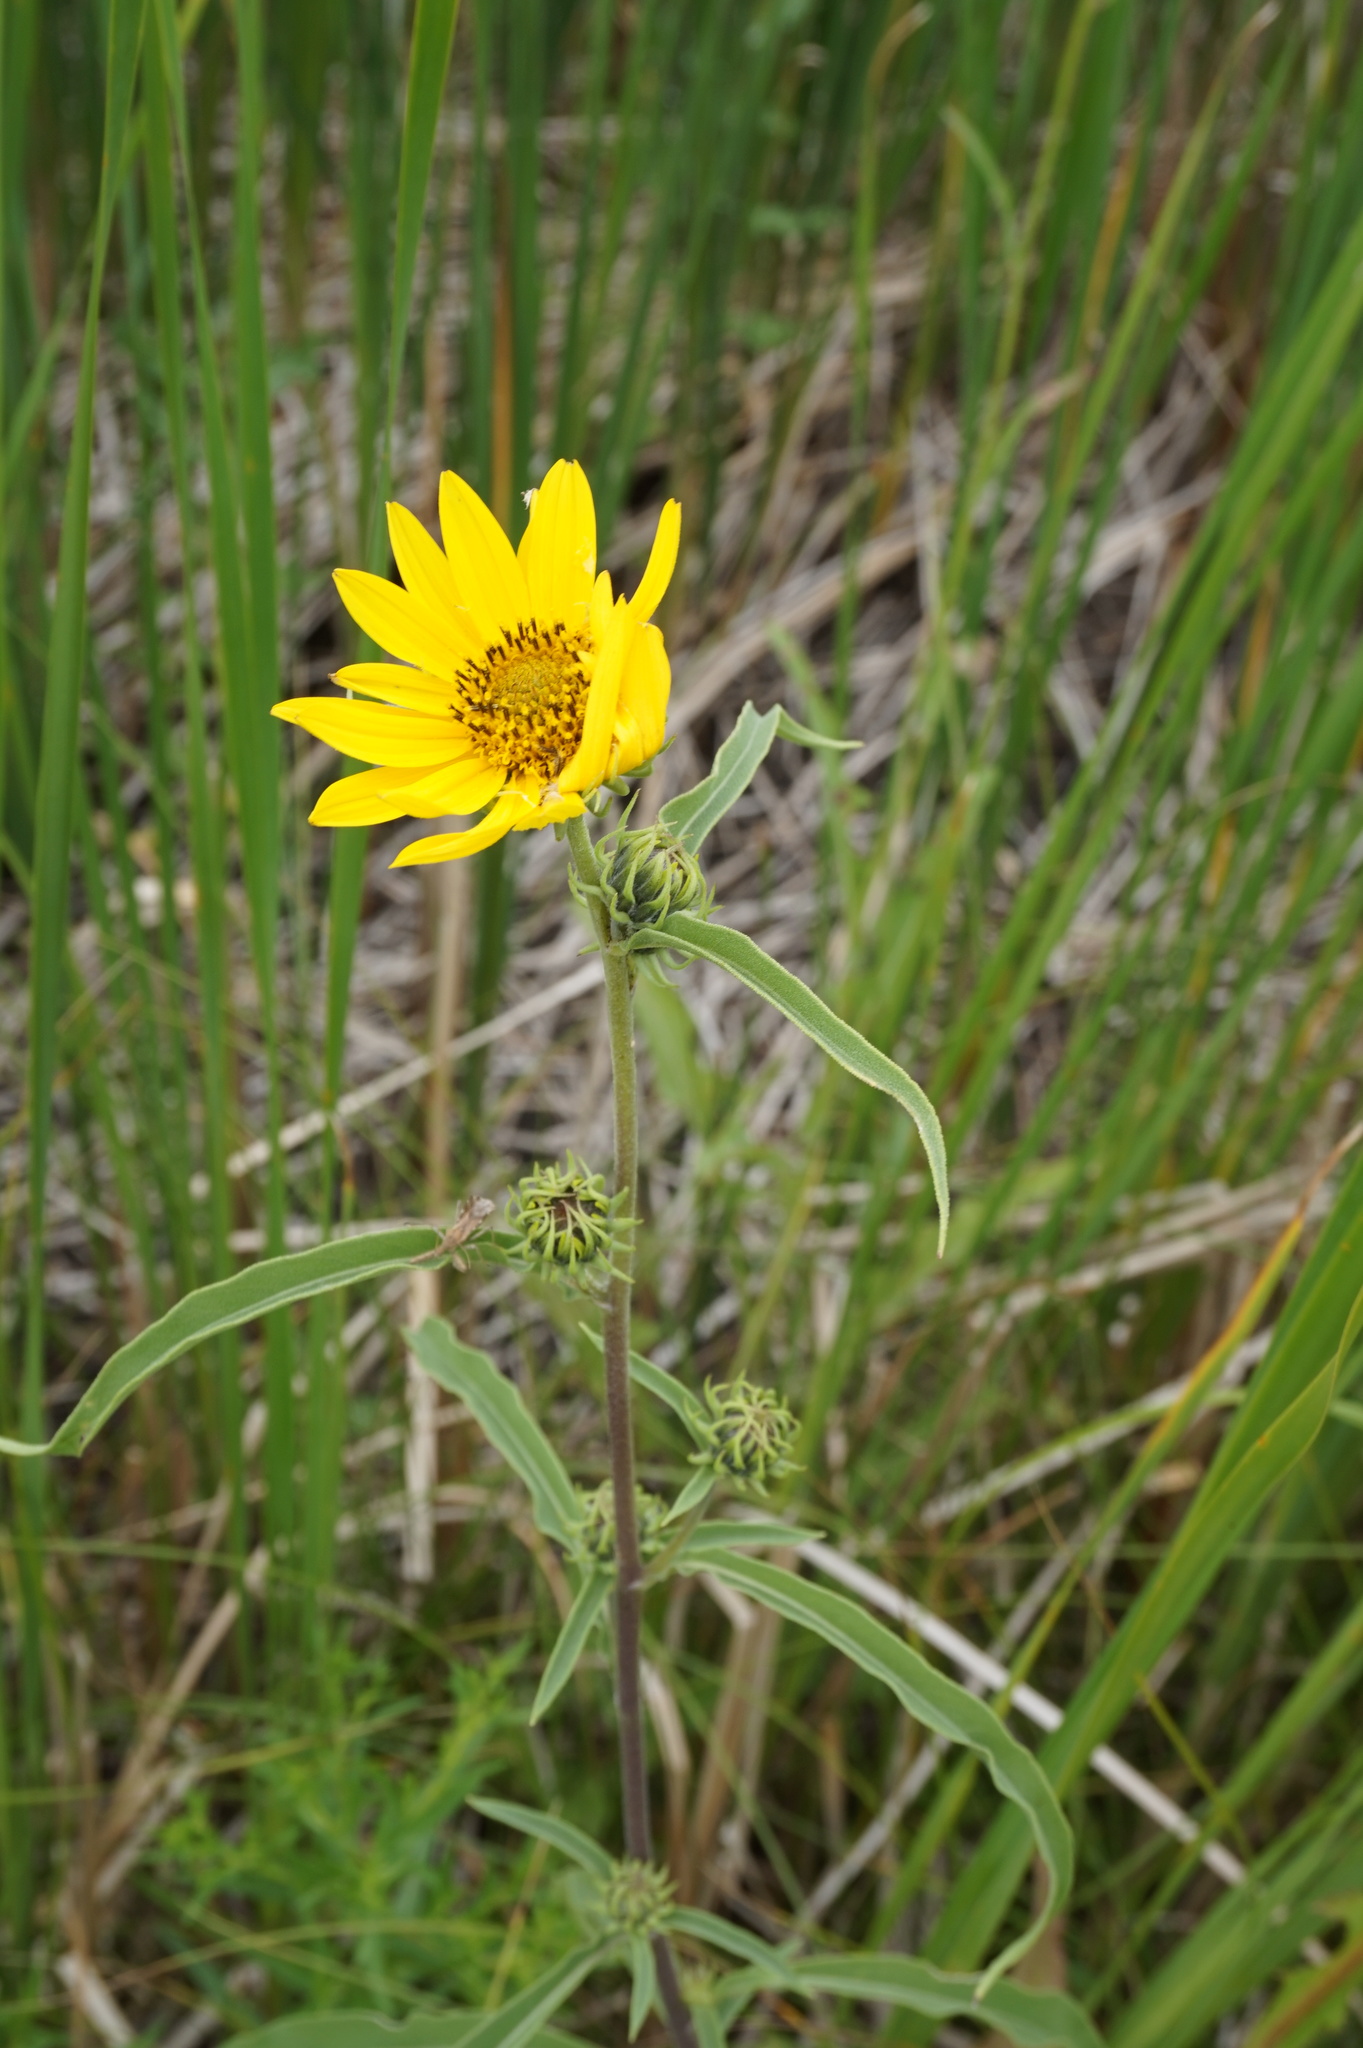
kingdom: Plantae
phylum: Tracheophyta
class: Magnoliopsida
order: Asterales
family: Asteraceae
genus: Helianthus
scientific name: Helianthus maximiliani
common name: Maximilian's sunflower
